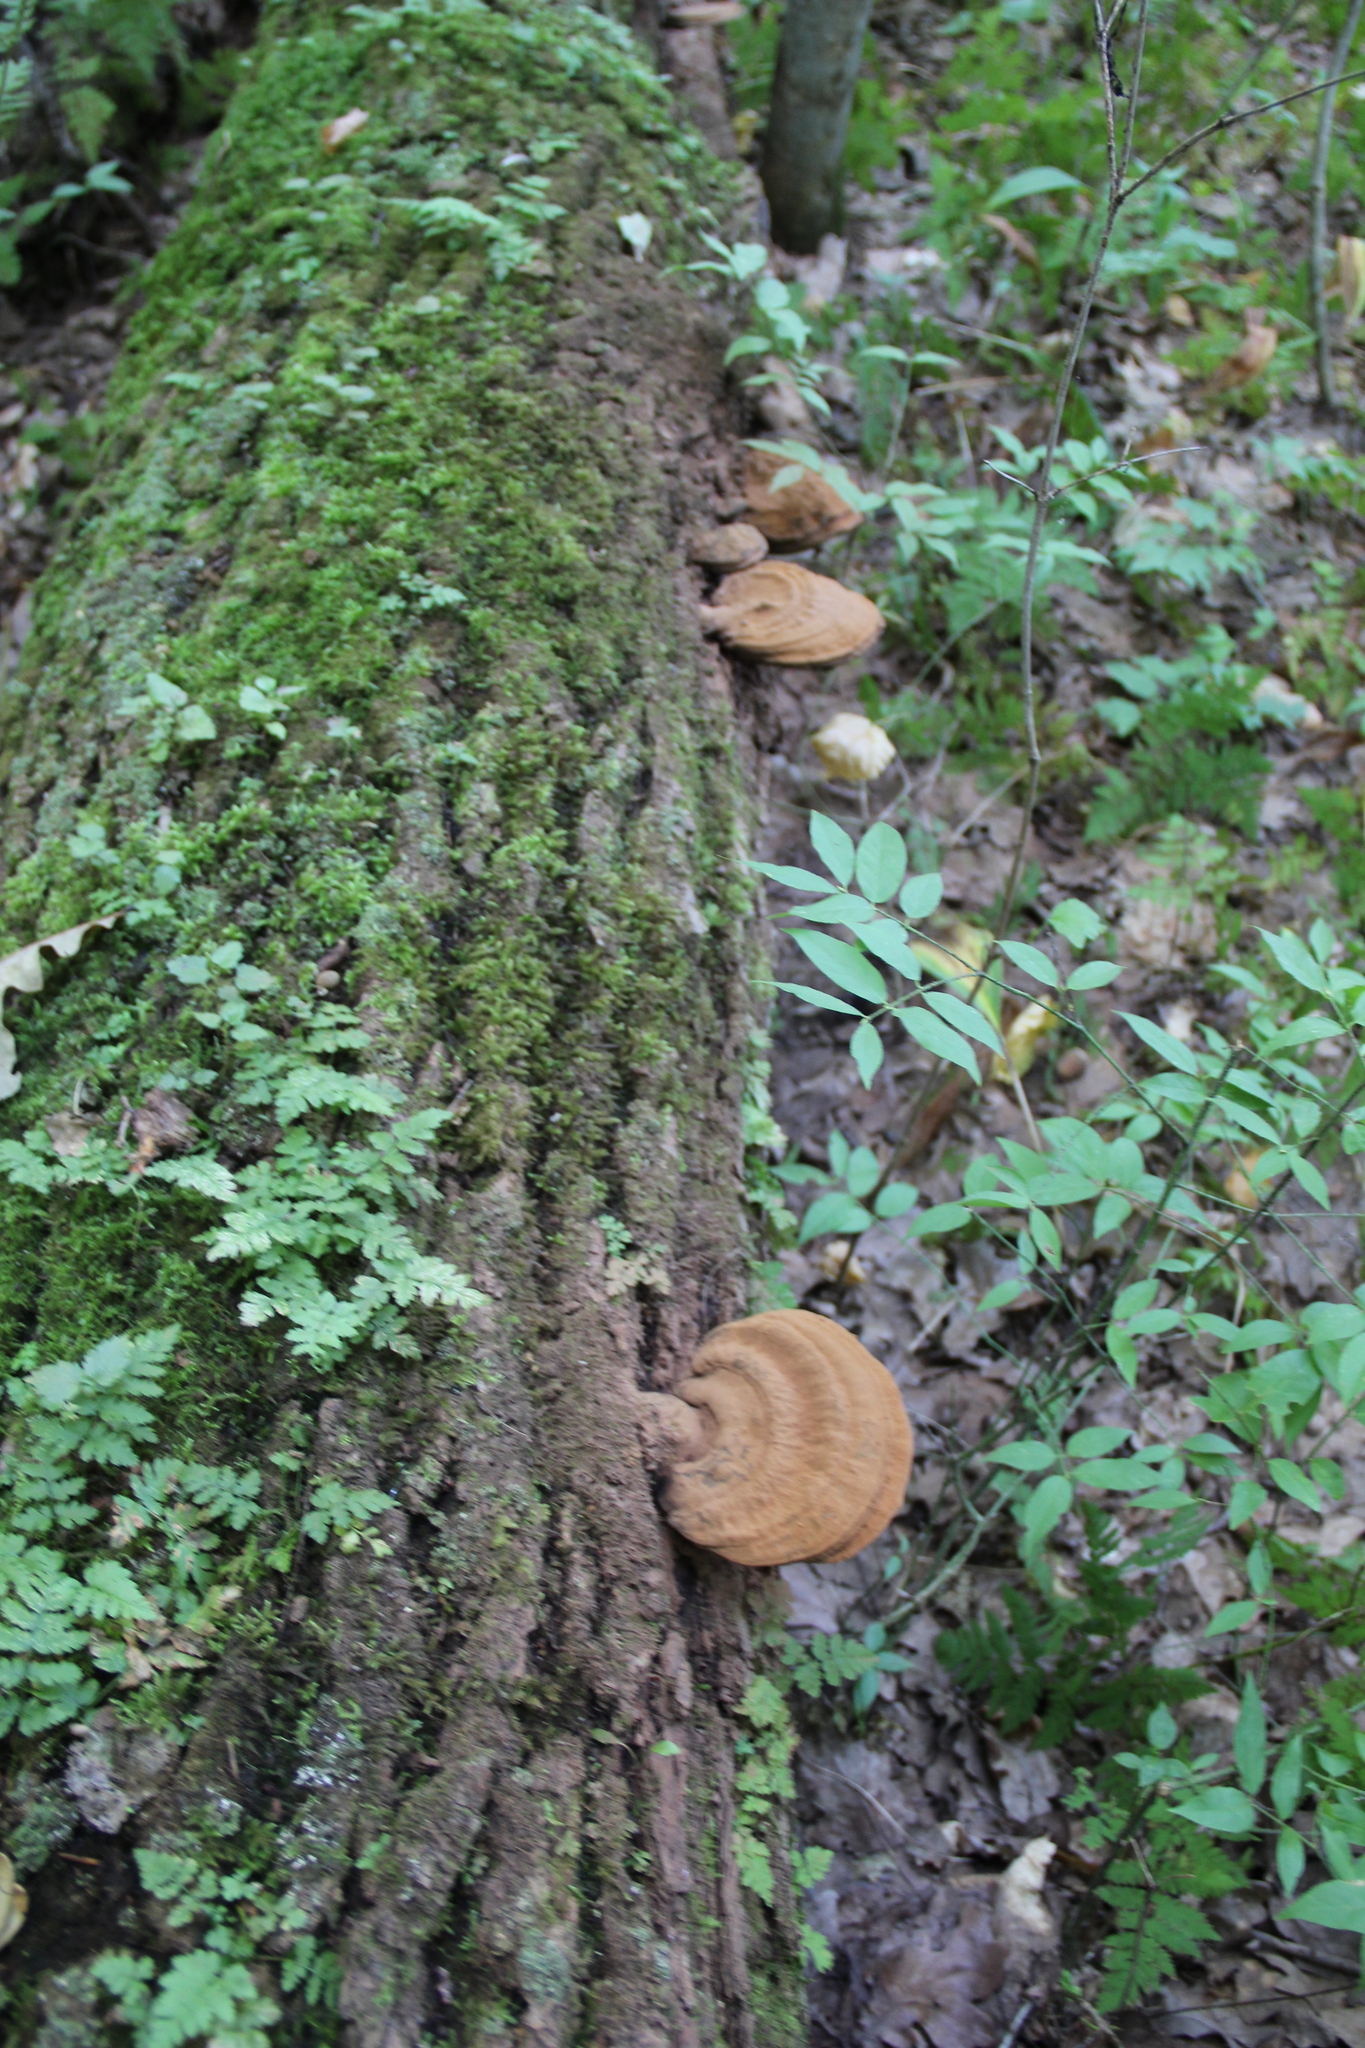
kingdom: Fungi
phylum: Basidiomycota
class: Agaricomycetes
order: Polyporales
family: Polyporaceae
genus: Ganoderma
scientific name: Ganoderma applanatum
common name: Artist's bracket
